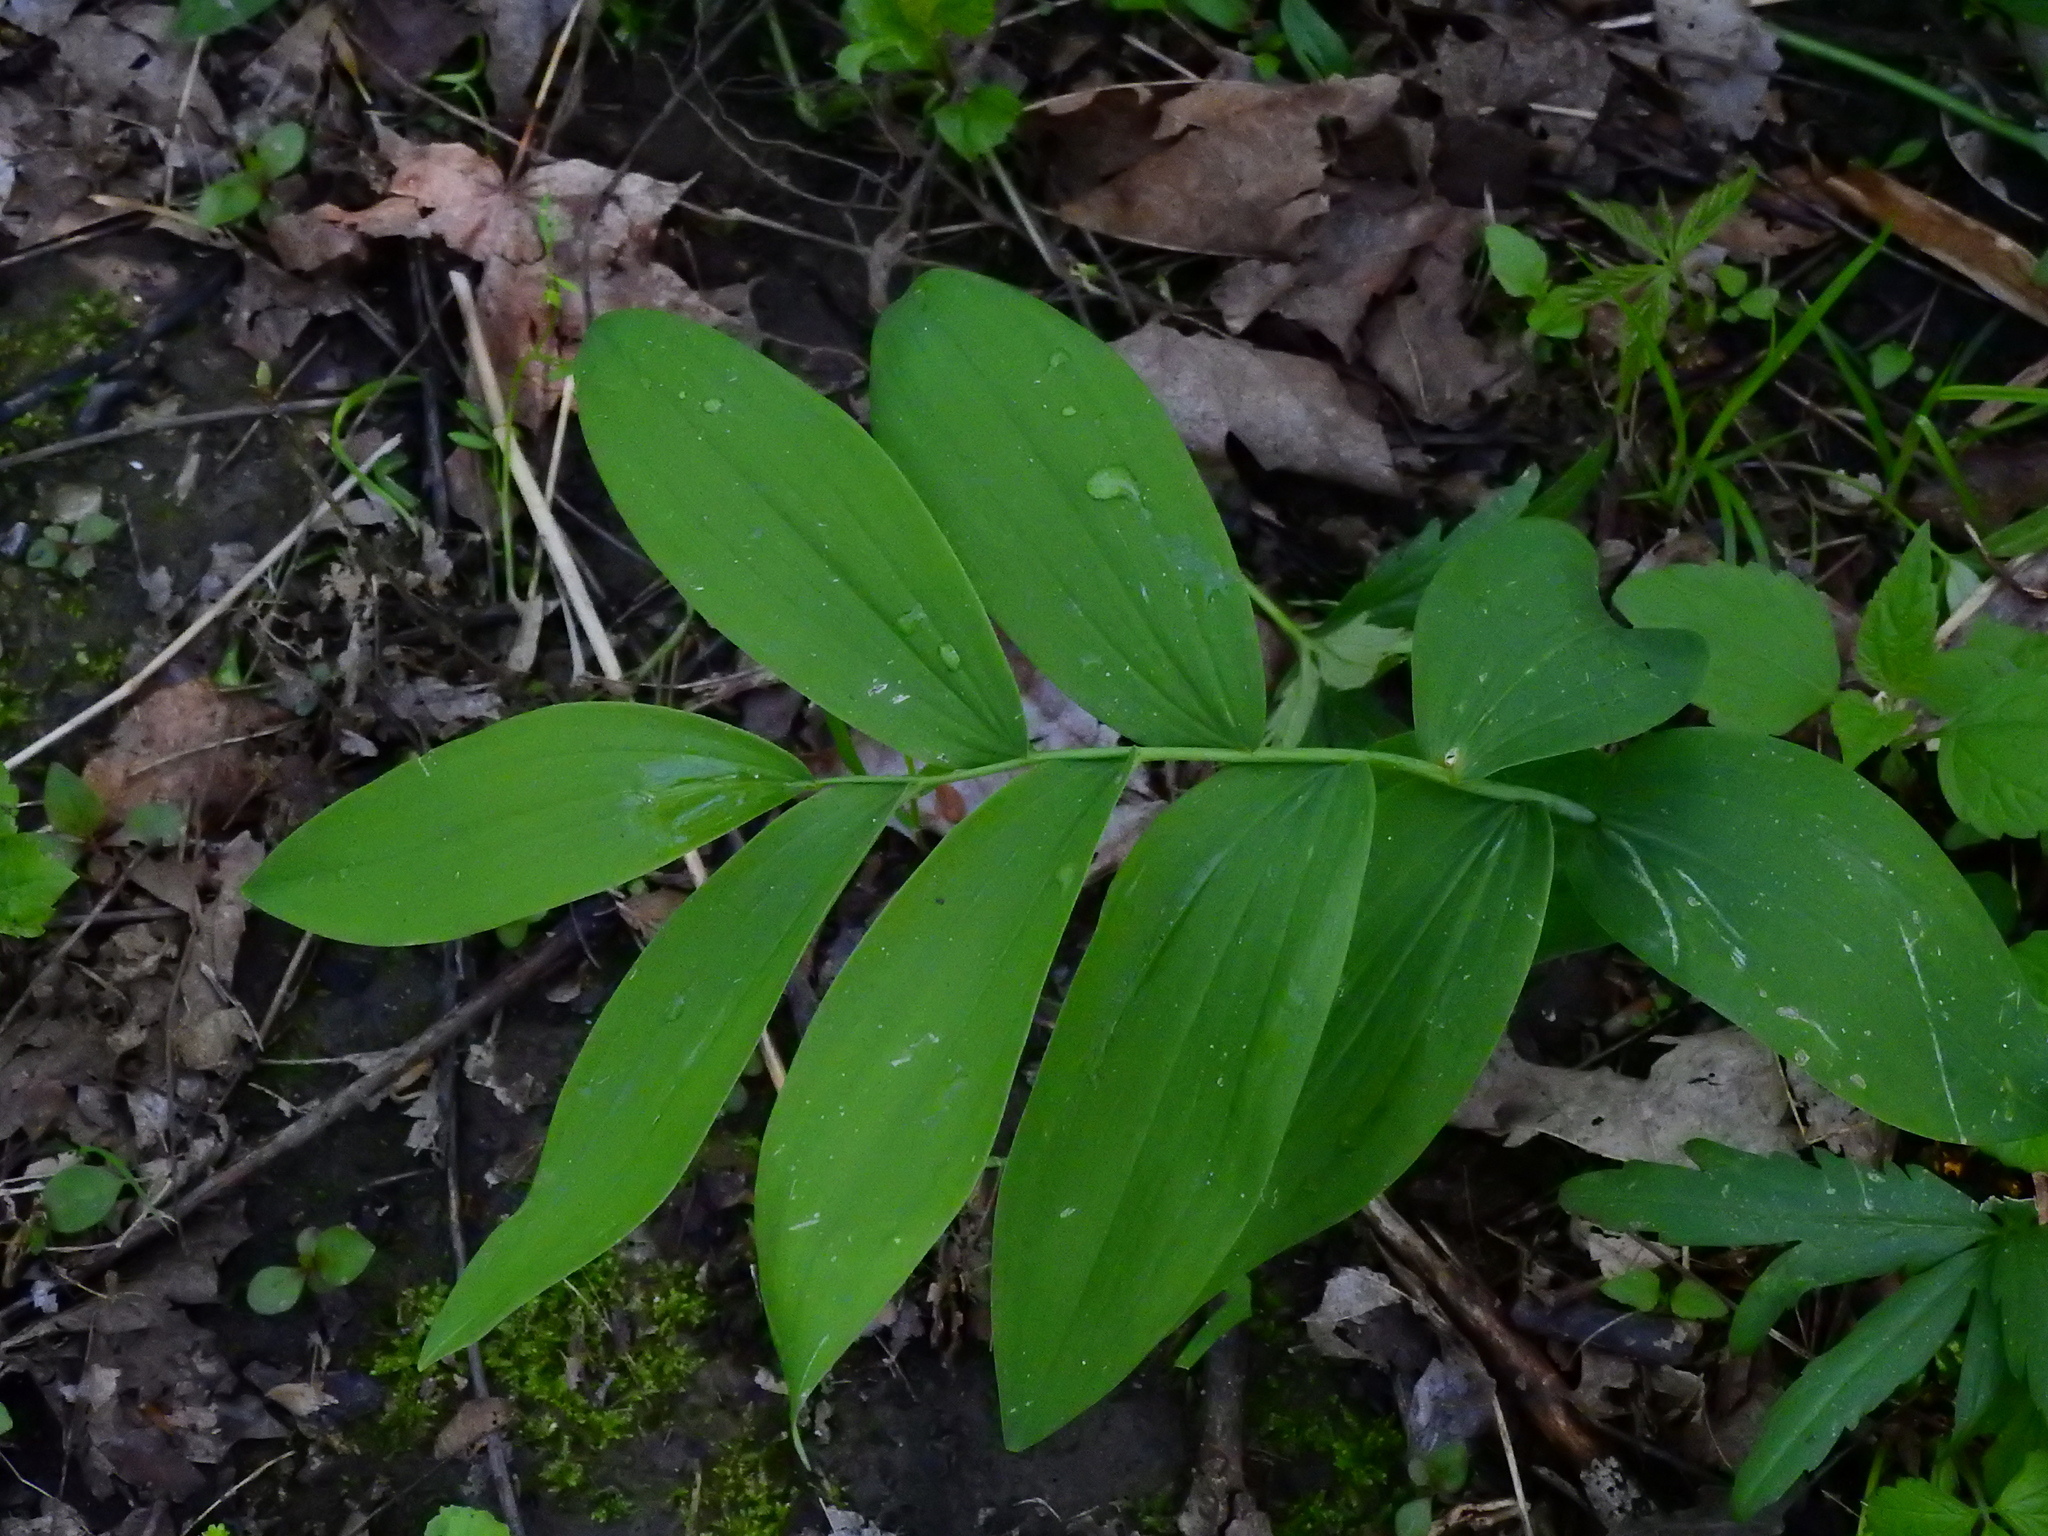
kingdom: Plantae
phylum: Tracheophyta
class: Liliopsida
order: Asparagales
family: Asparagaceae
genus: Polygonatum
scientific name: Polygonatum biflorum
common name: American solomon's-seal
